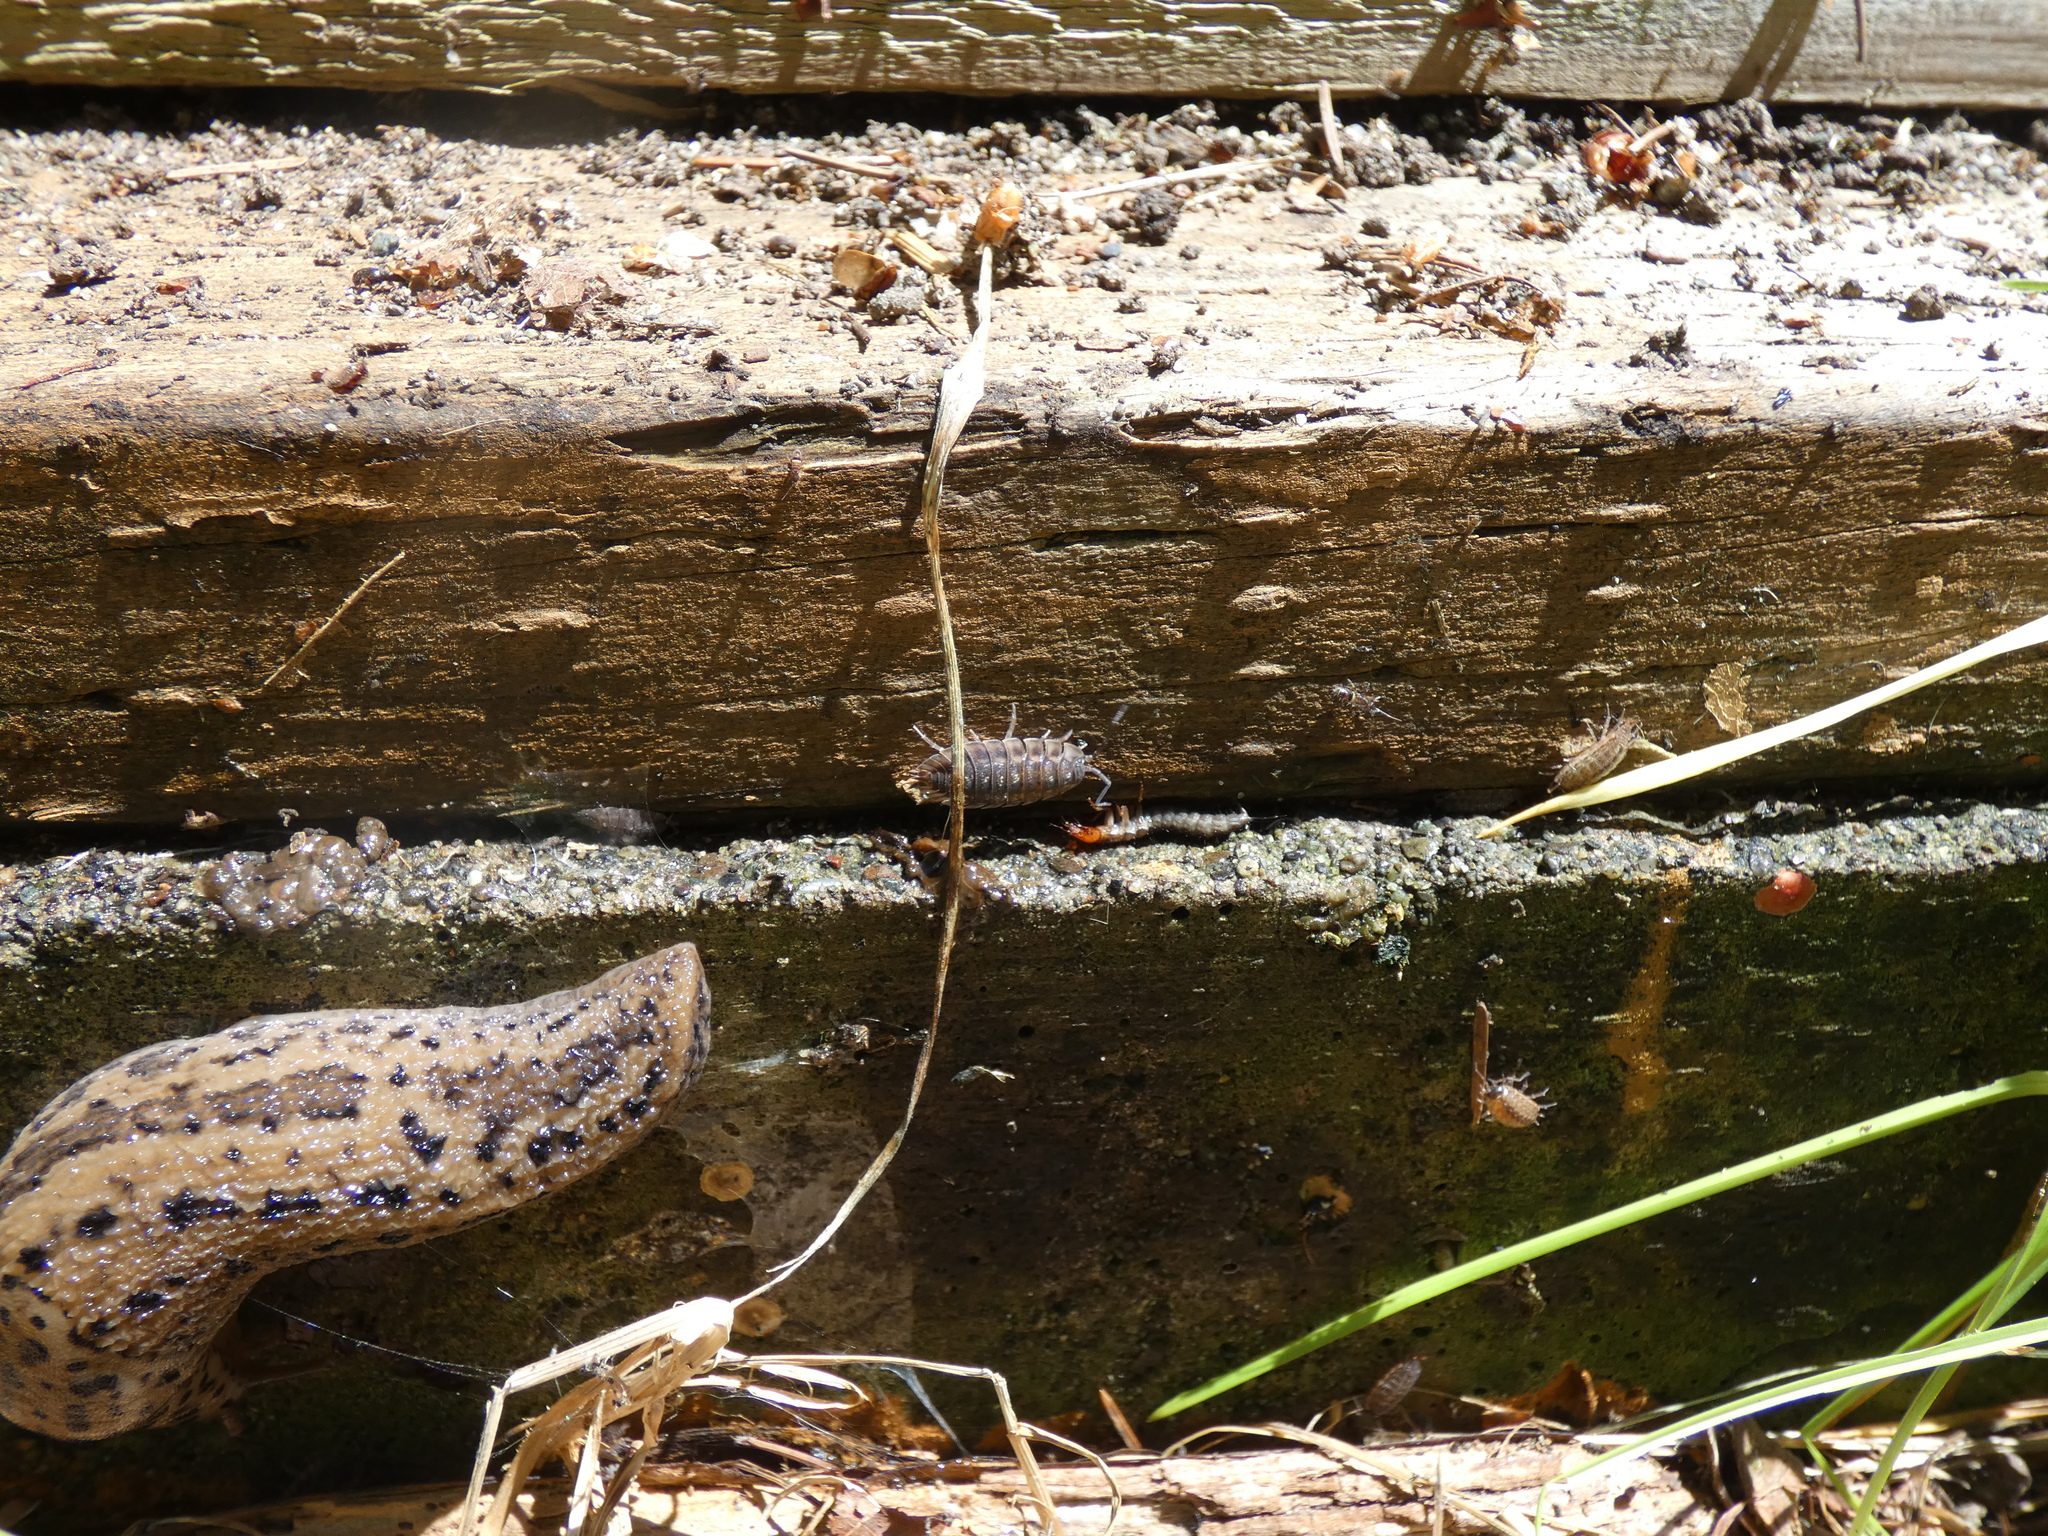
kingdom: Animalia
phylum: Arthropoda
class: Malacostraca
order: Isopoda
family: Oniscidae
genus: Oniscus
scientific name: Oniscus asellus
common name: Common shiny woodlouse
